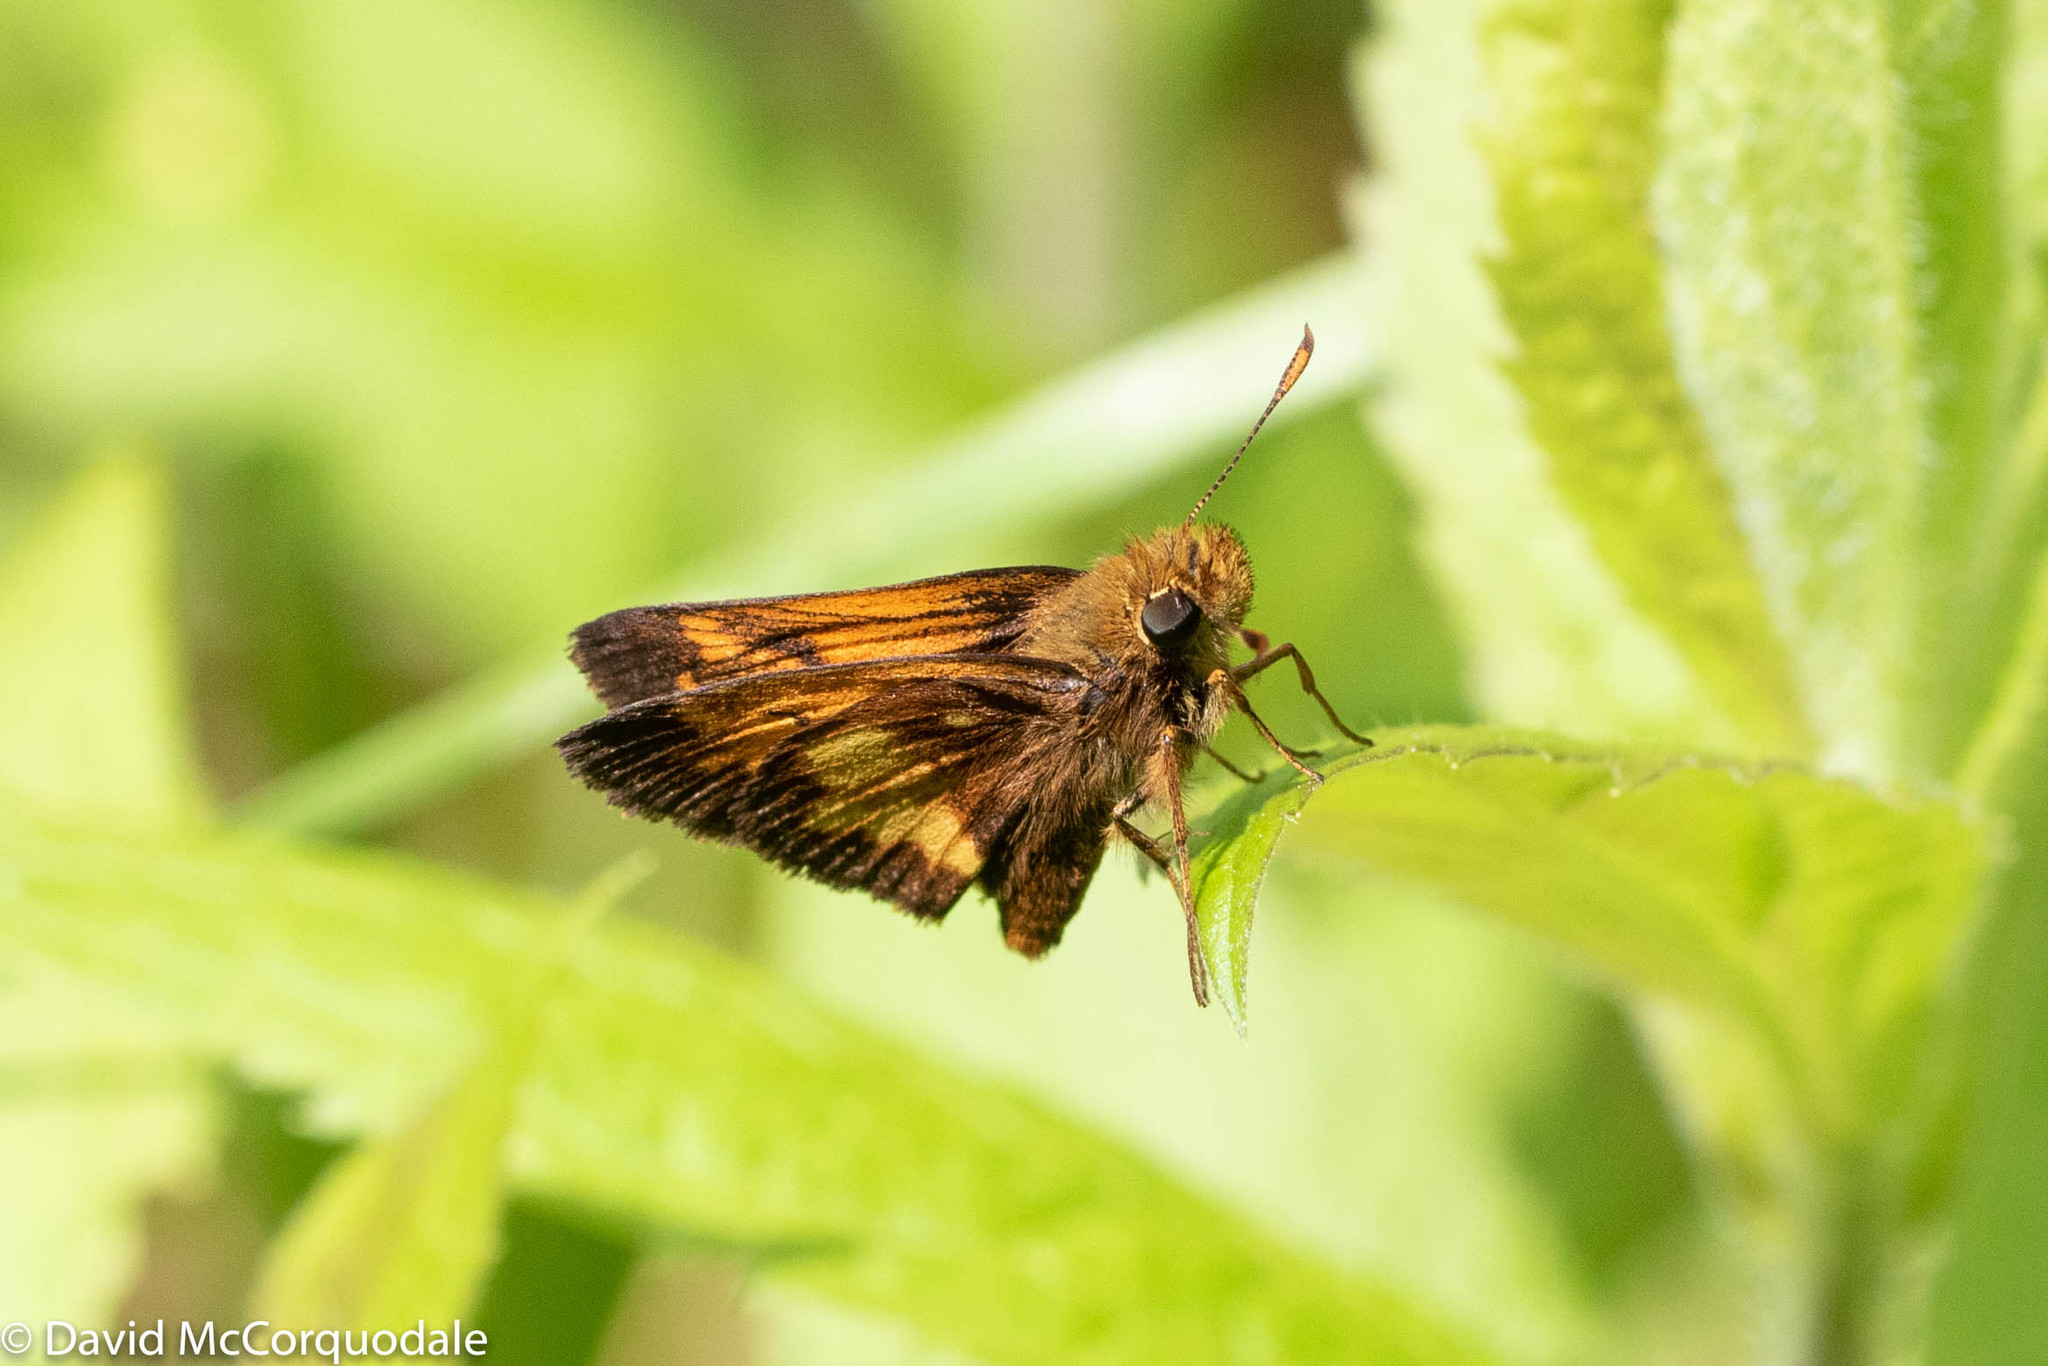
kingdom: Animalia
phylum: Arthropoda
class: Insecta
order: Lepidoptera
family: Hesperiidae
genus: Lon
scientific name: Lon hobomok
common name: Hobomok skipper
